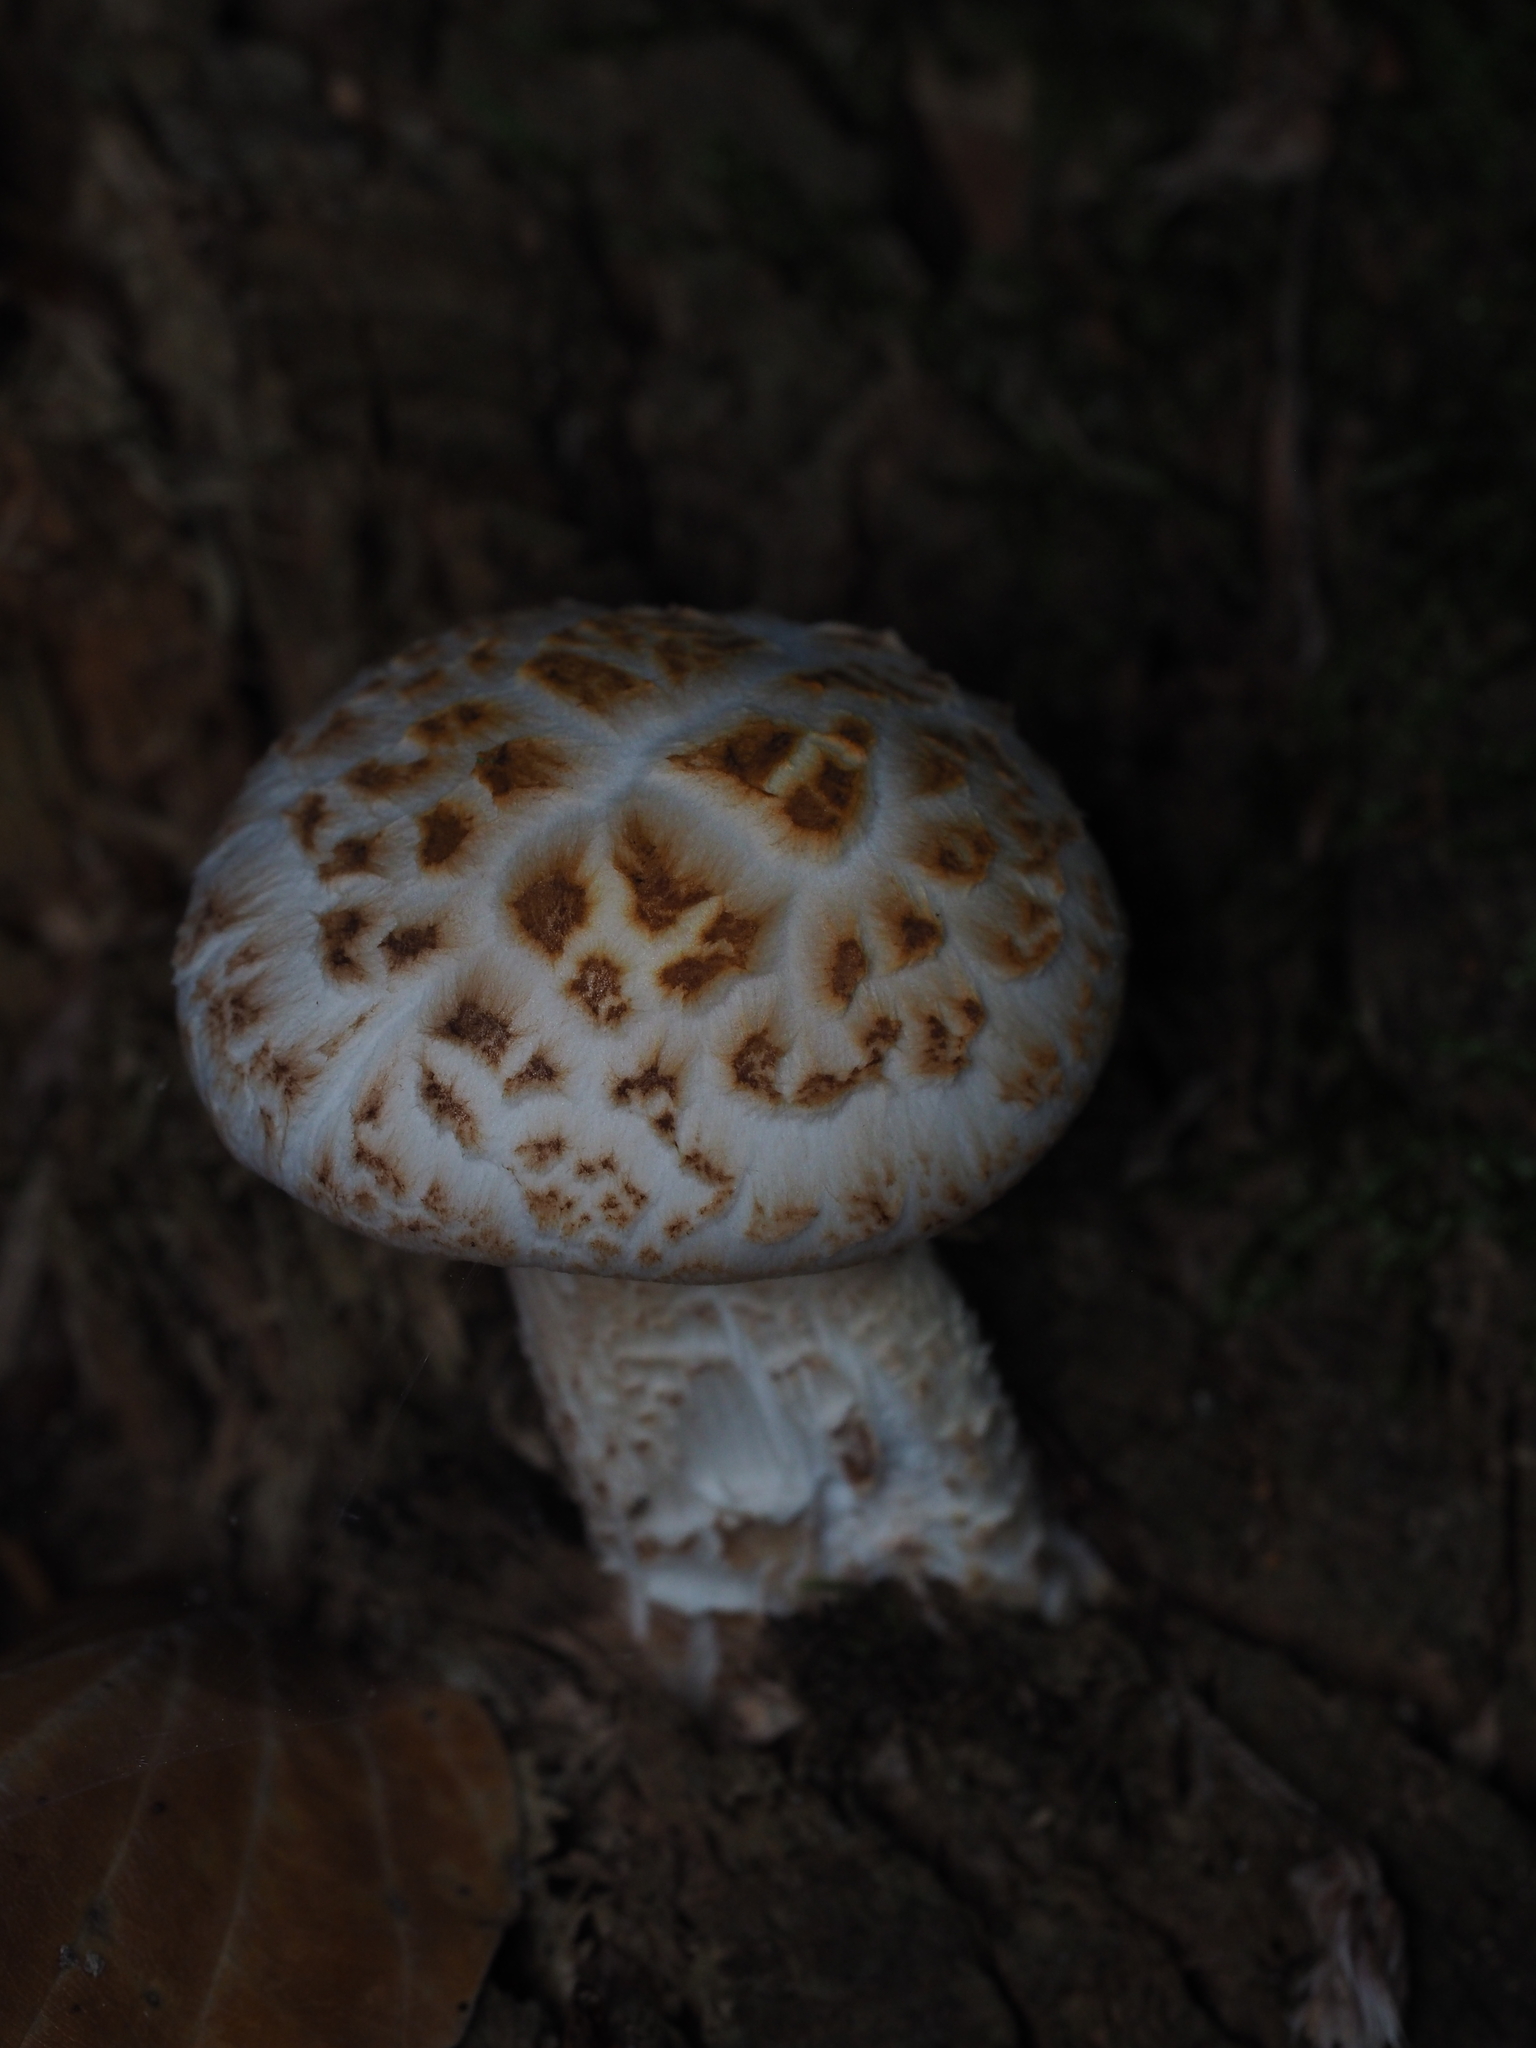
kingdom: Fungi
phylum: Basidiomycota
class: Agaricomycetes
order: Gloeophyllales
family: Gloeophyllaceae
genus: Neolentinus
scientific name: Neolentinus lepideus
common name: Scaly sawgill
